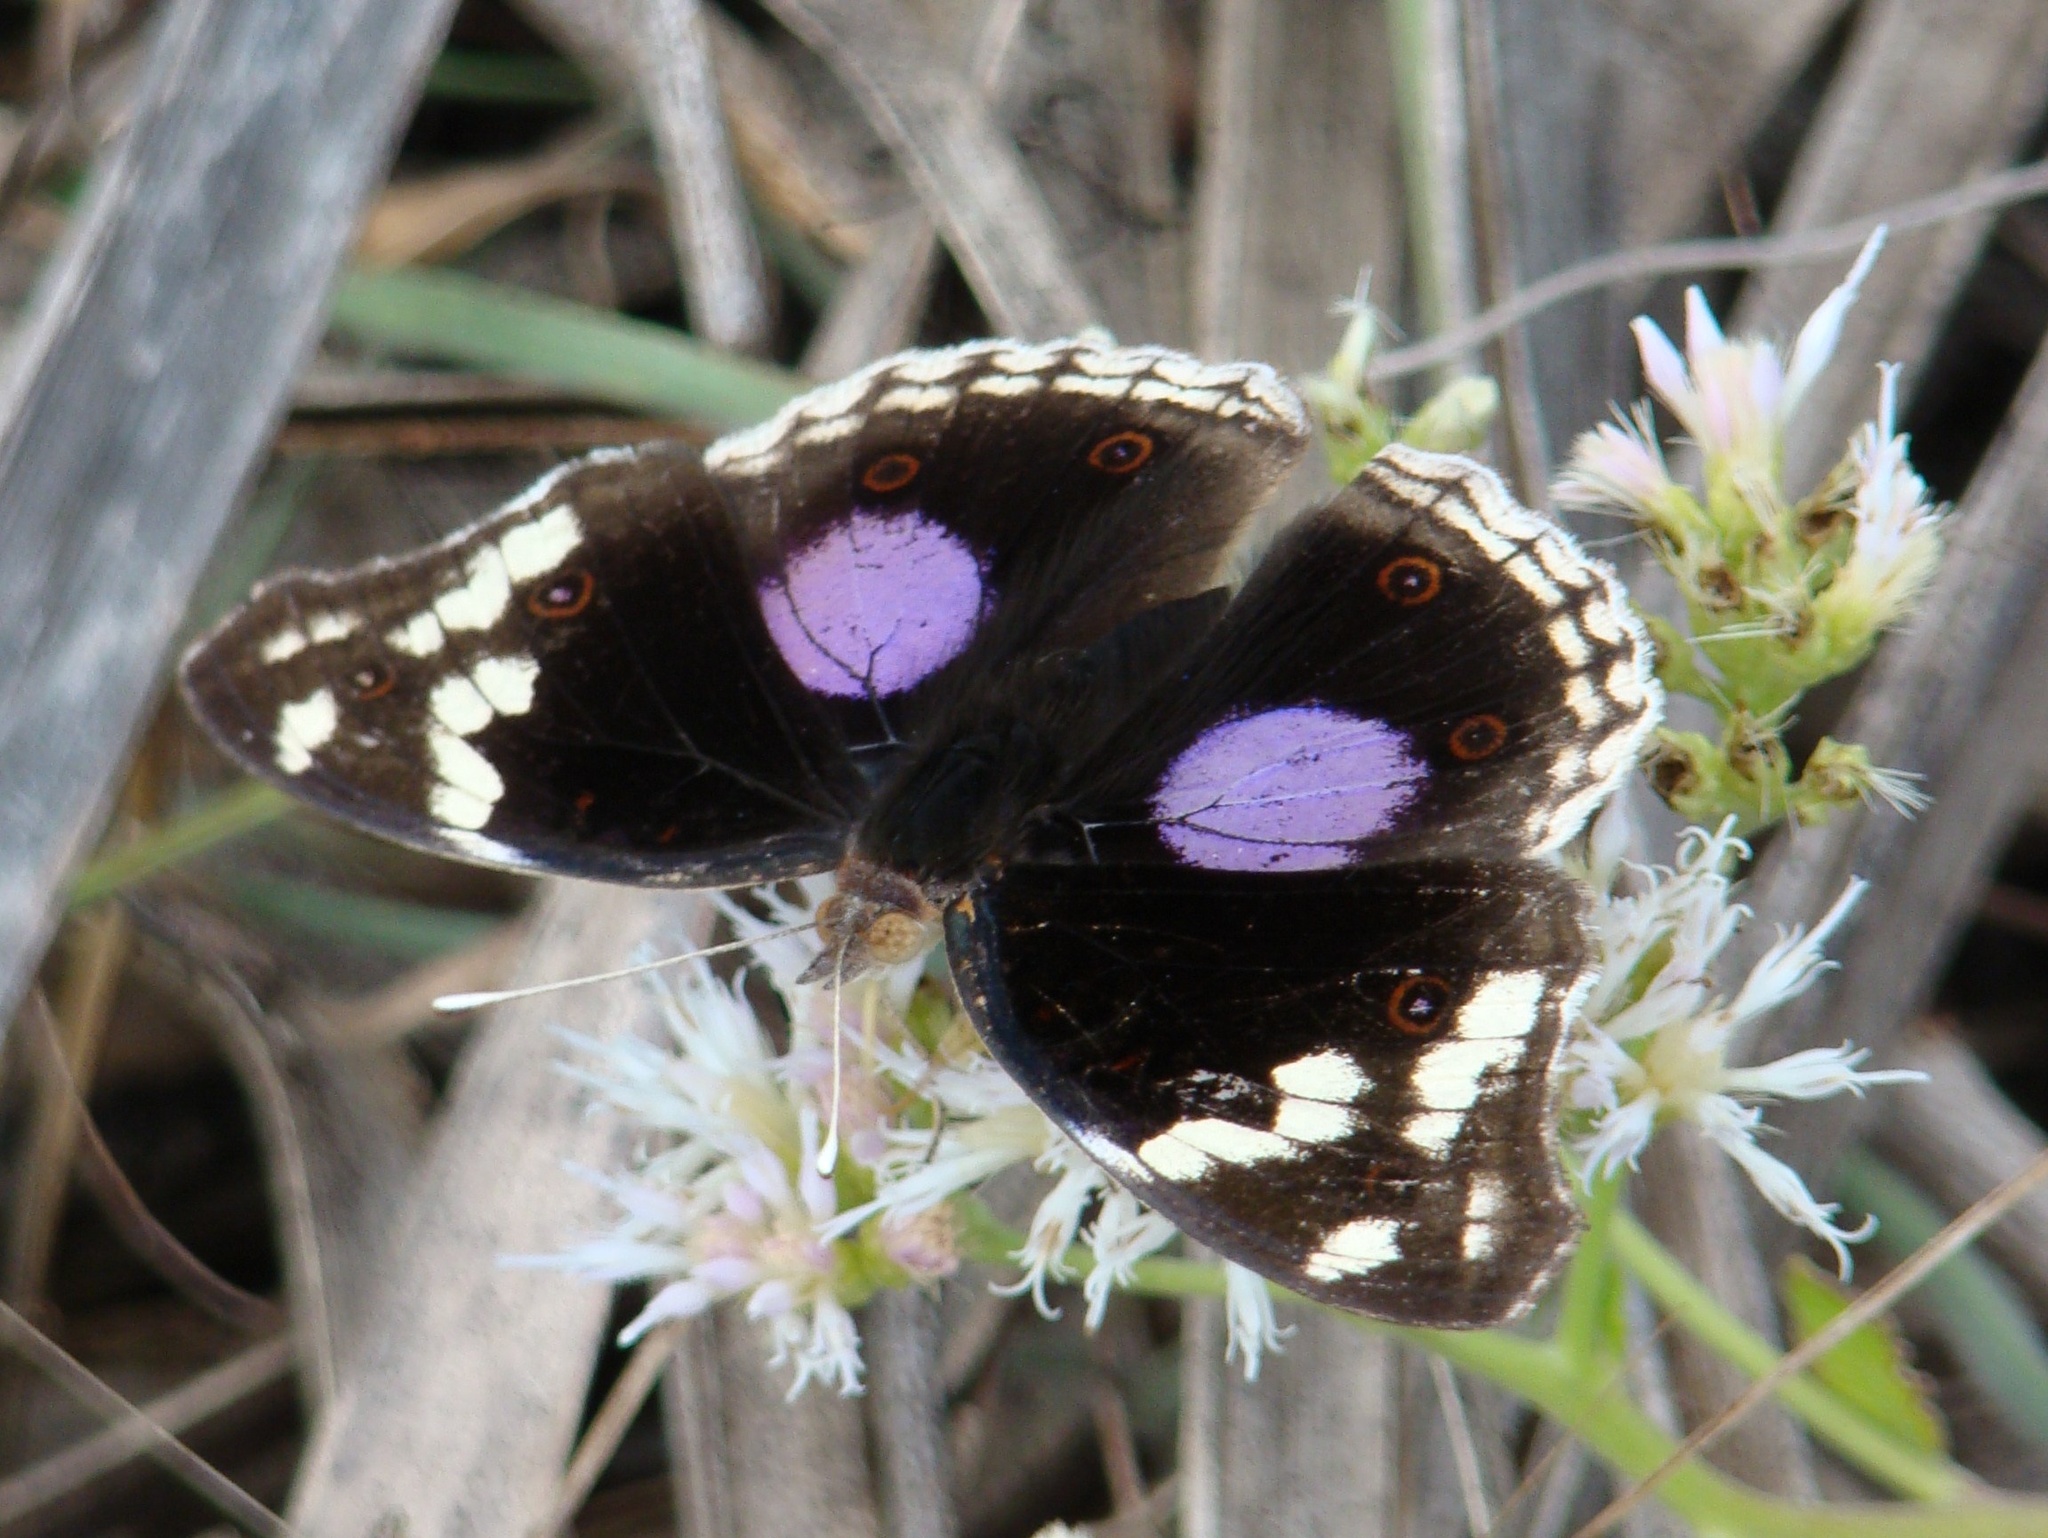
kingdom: Animalia
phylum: Arthropoda
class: Insecta
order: Lepidoptera
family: Nymphalidae
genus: Junonia
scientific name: Junonia oenone
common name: Dark blue pansy
